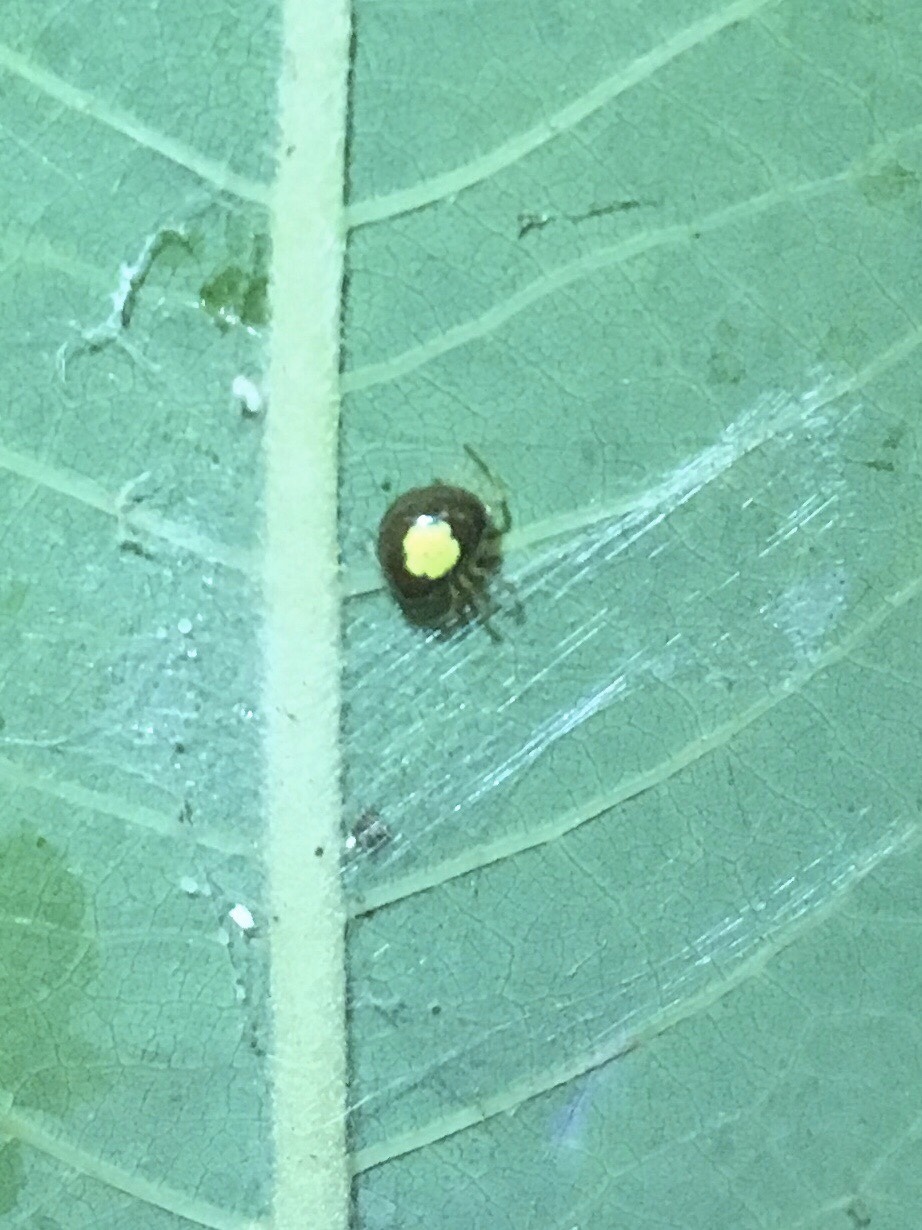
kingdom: Animalia
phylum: Arthropoda
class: Arachnida
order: Araneae
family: Theridiidae
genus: Theridula
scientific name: Theridula emertoni
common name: Emerton's bitubercled cobweaver
